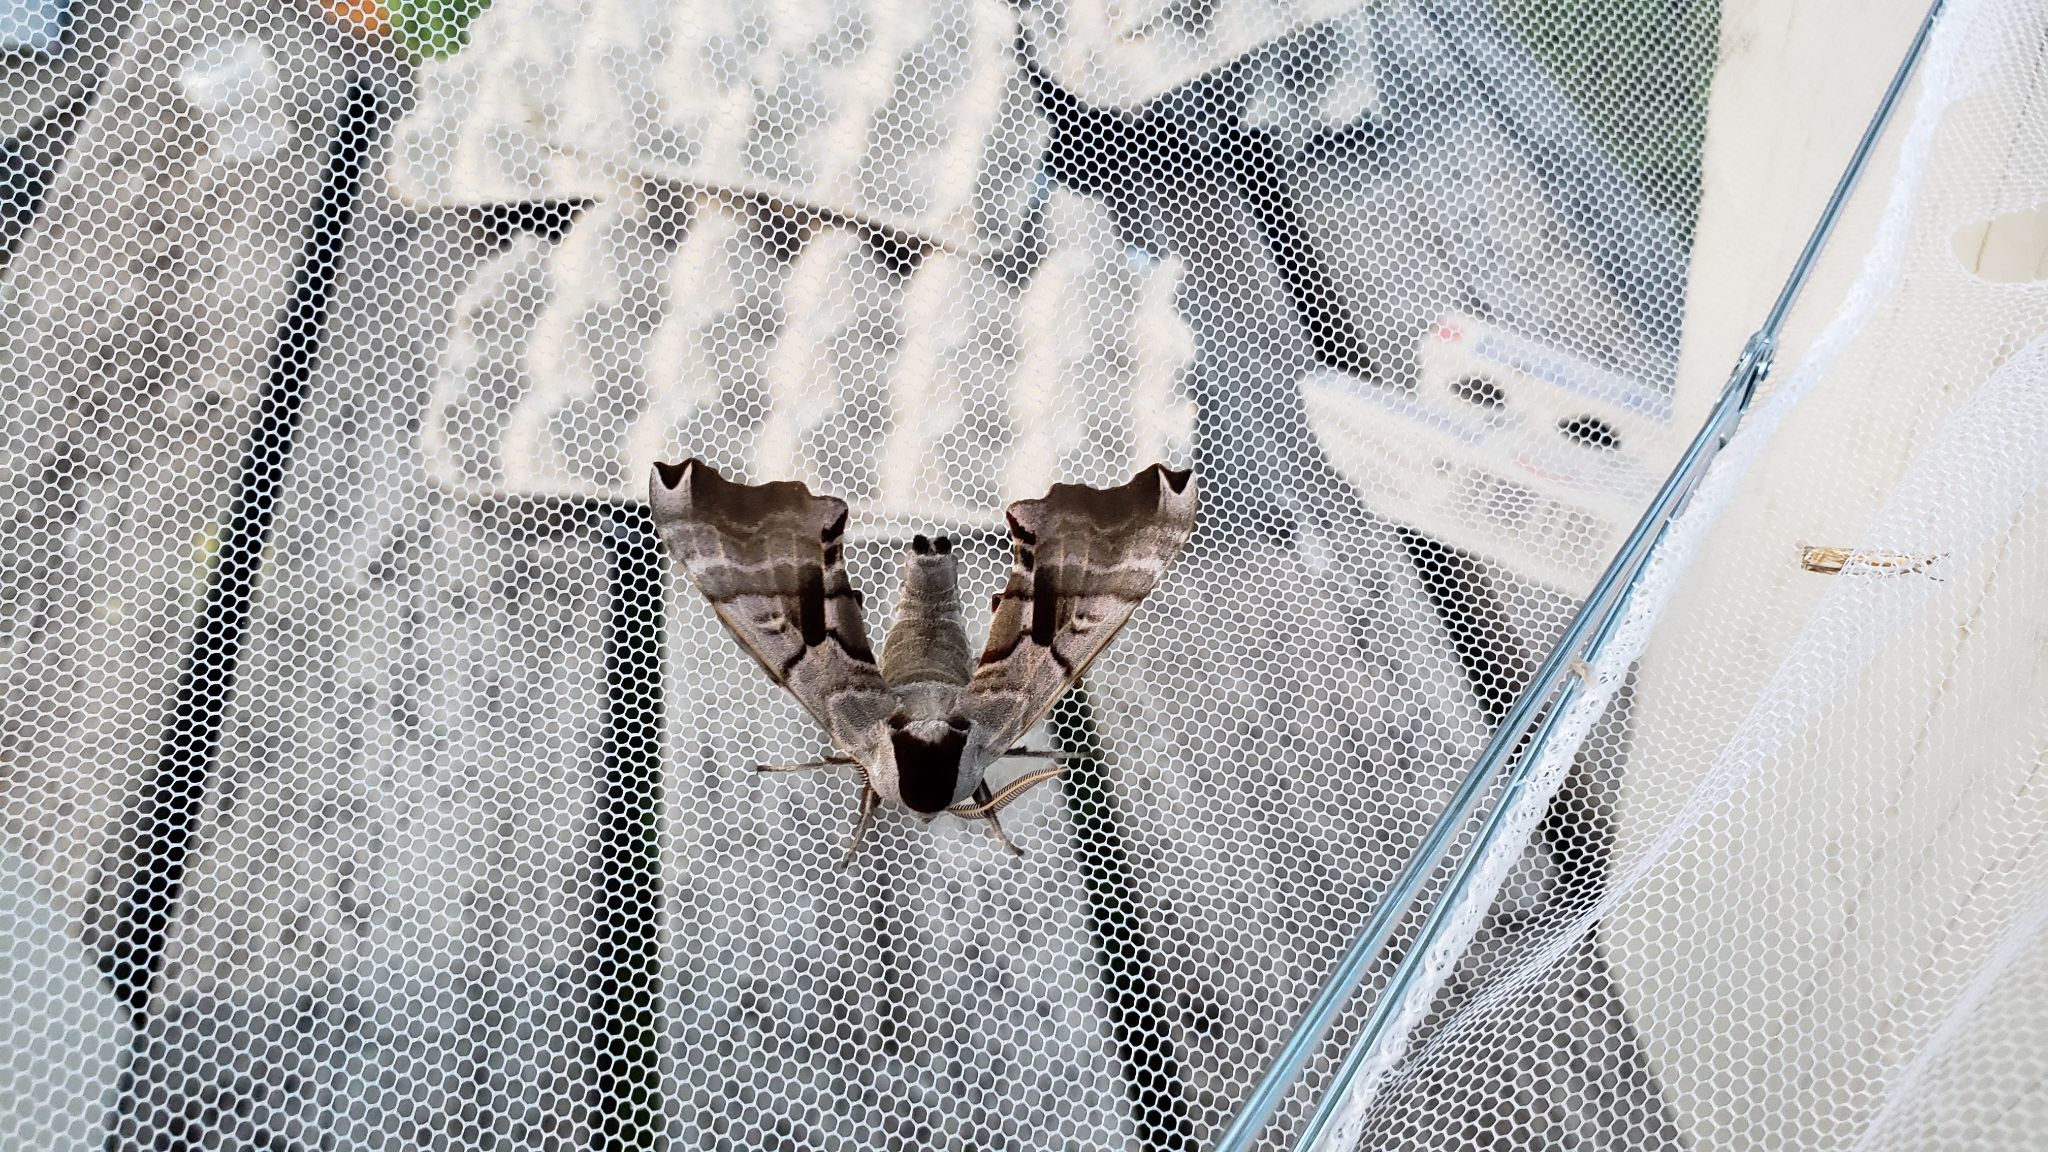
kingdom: Animalia
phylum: Arthropoda
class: Insecta
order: Lepidoptera
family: Sphingidae
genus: Smerinthus
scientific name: Smerinthus jamaicensis
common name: Twin spotted sphinx
